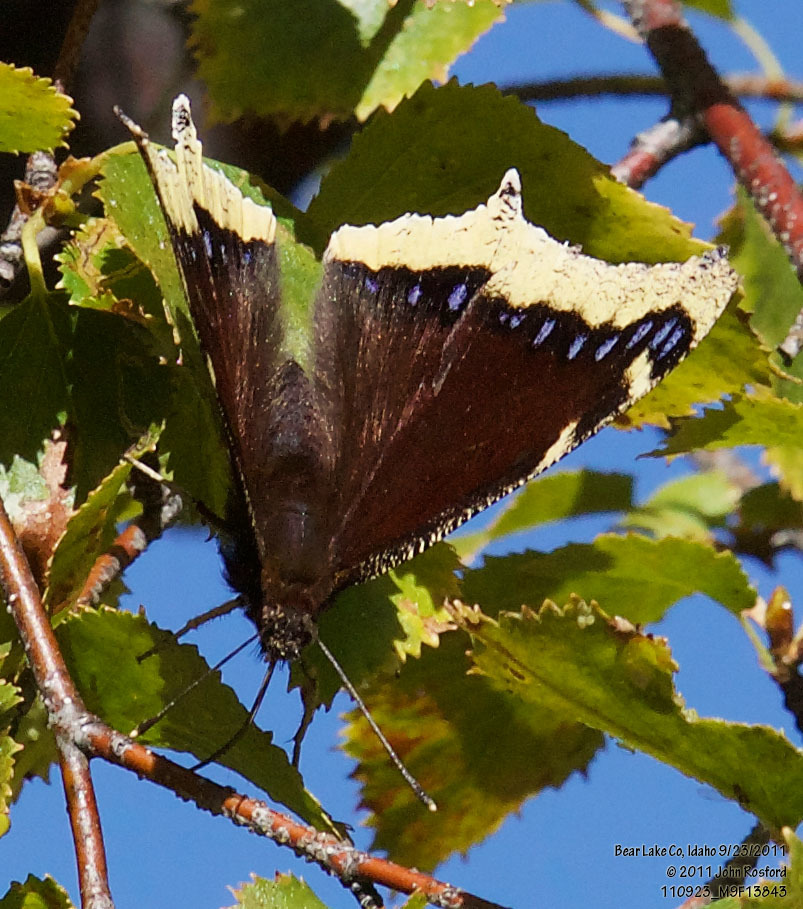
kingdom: Animalia
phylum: Arthropoda
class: Insecta
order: Lepidoptera
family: Nymphalidae
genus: Nymphalis
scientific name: Nymphalis antiopa
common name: Camberwell beauty
